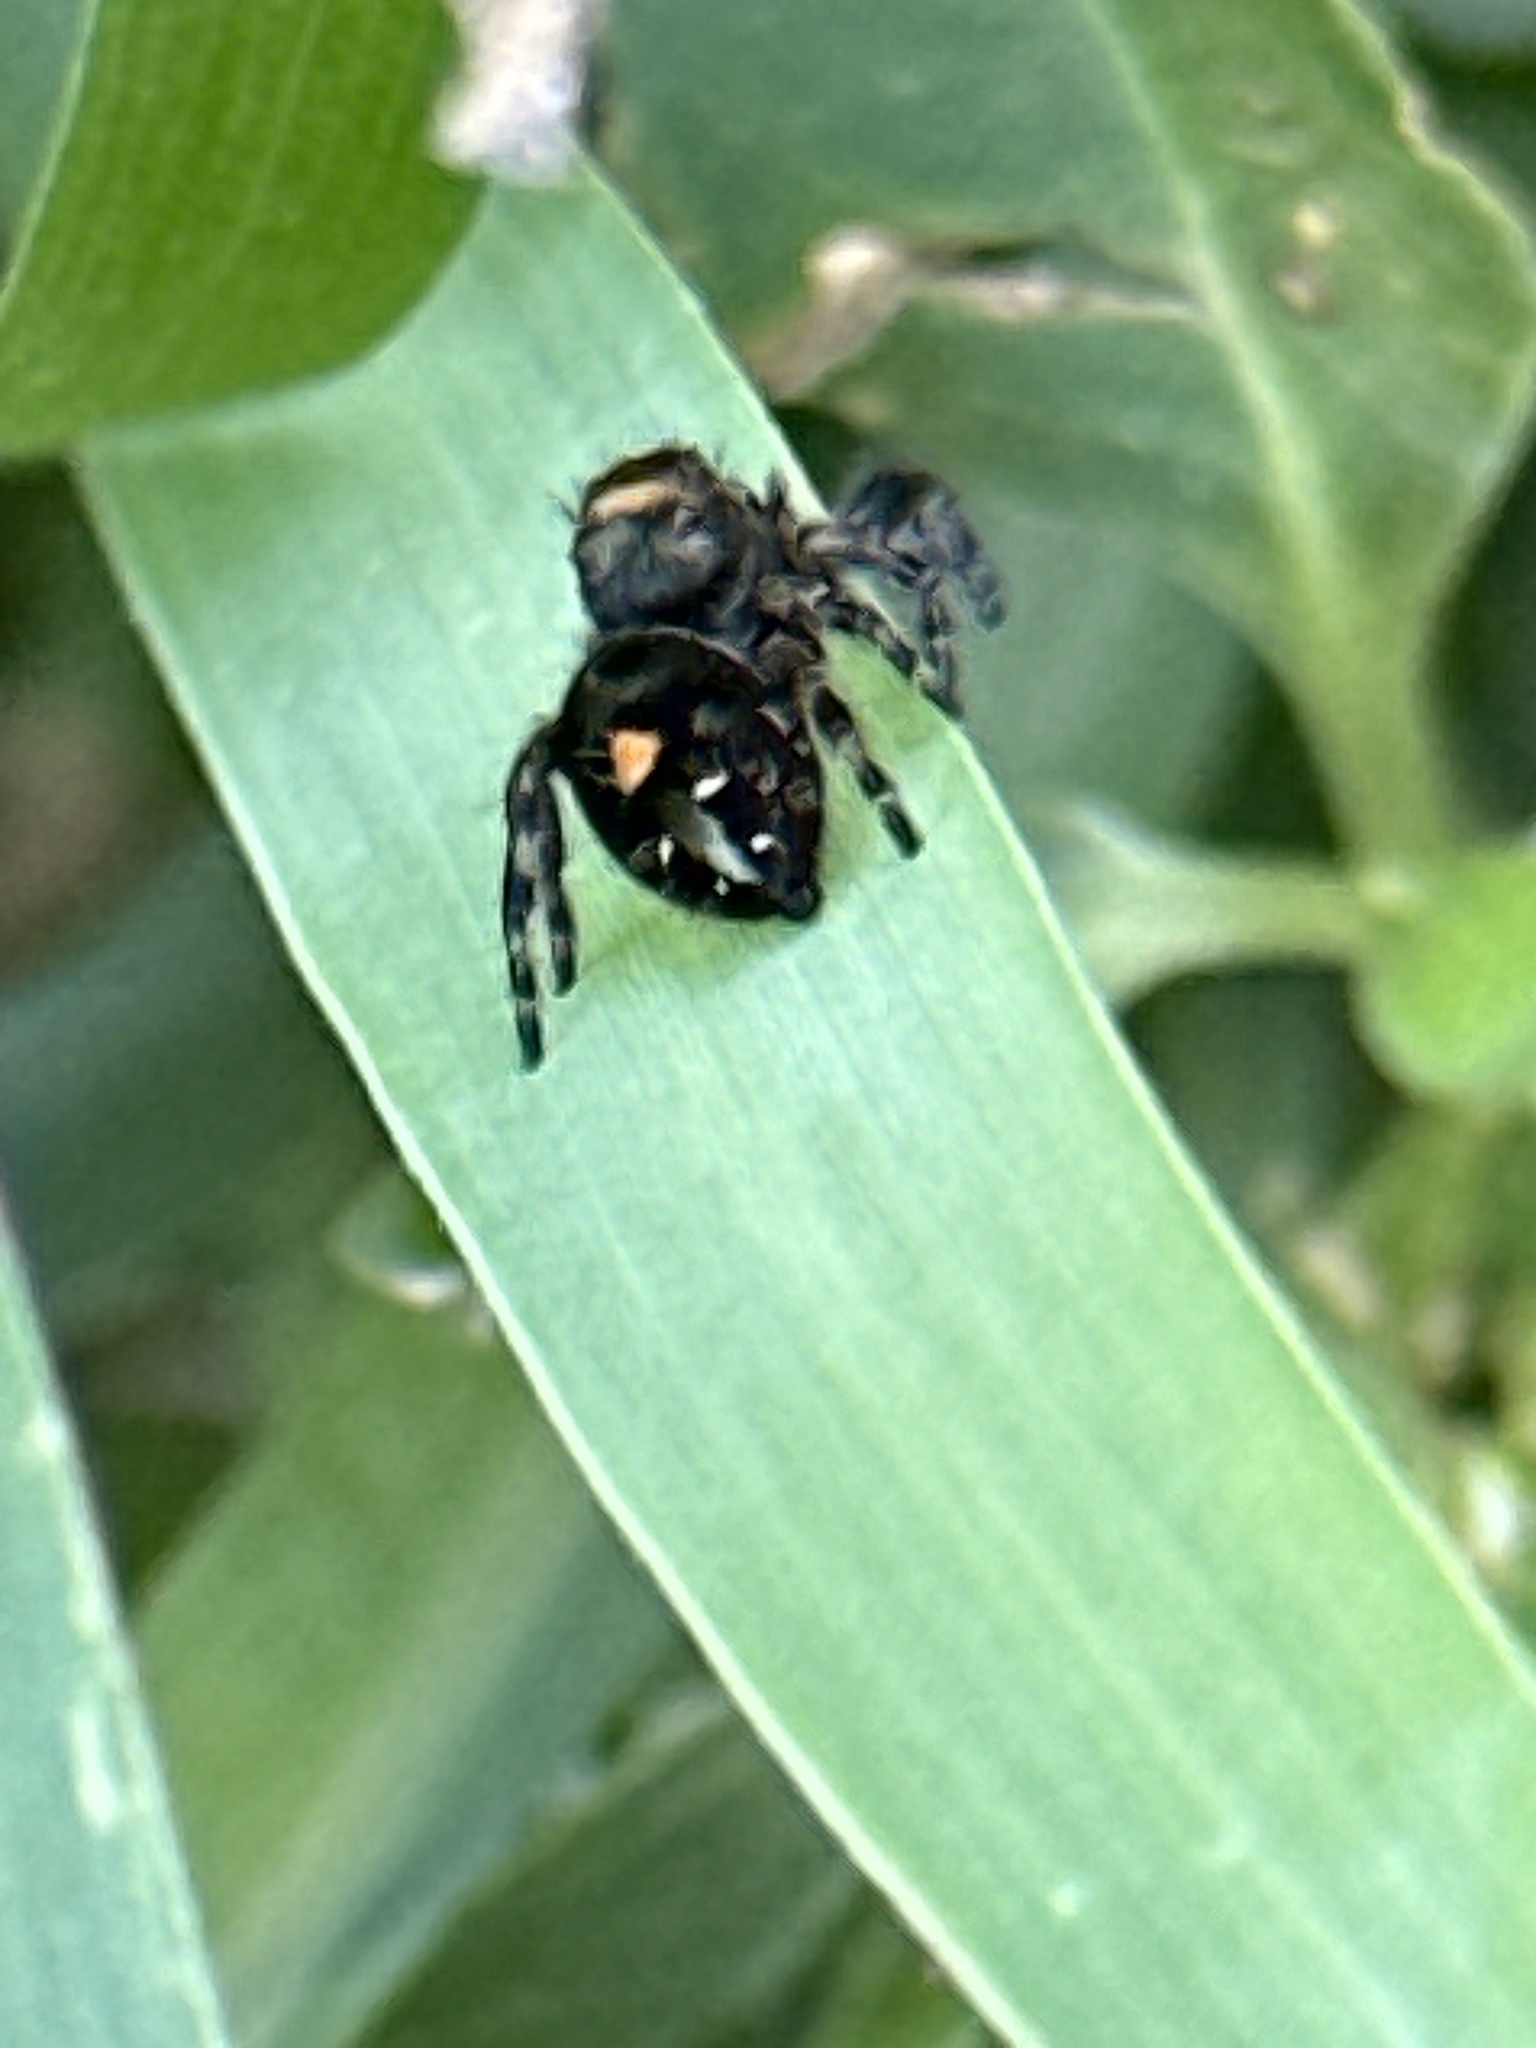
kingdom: Animalia
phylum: Arthropoda
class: Arachnida
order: Araneae
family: Salticidae
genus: Phidippus
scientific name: Phidippus audax
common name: Bold jumper
